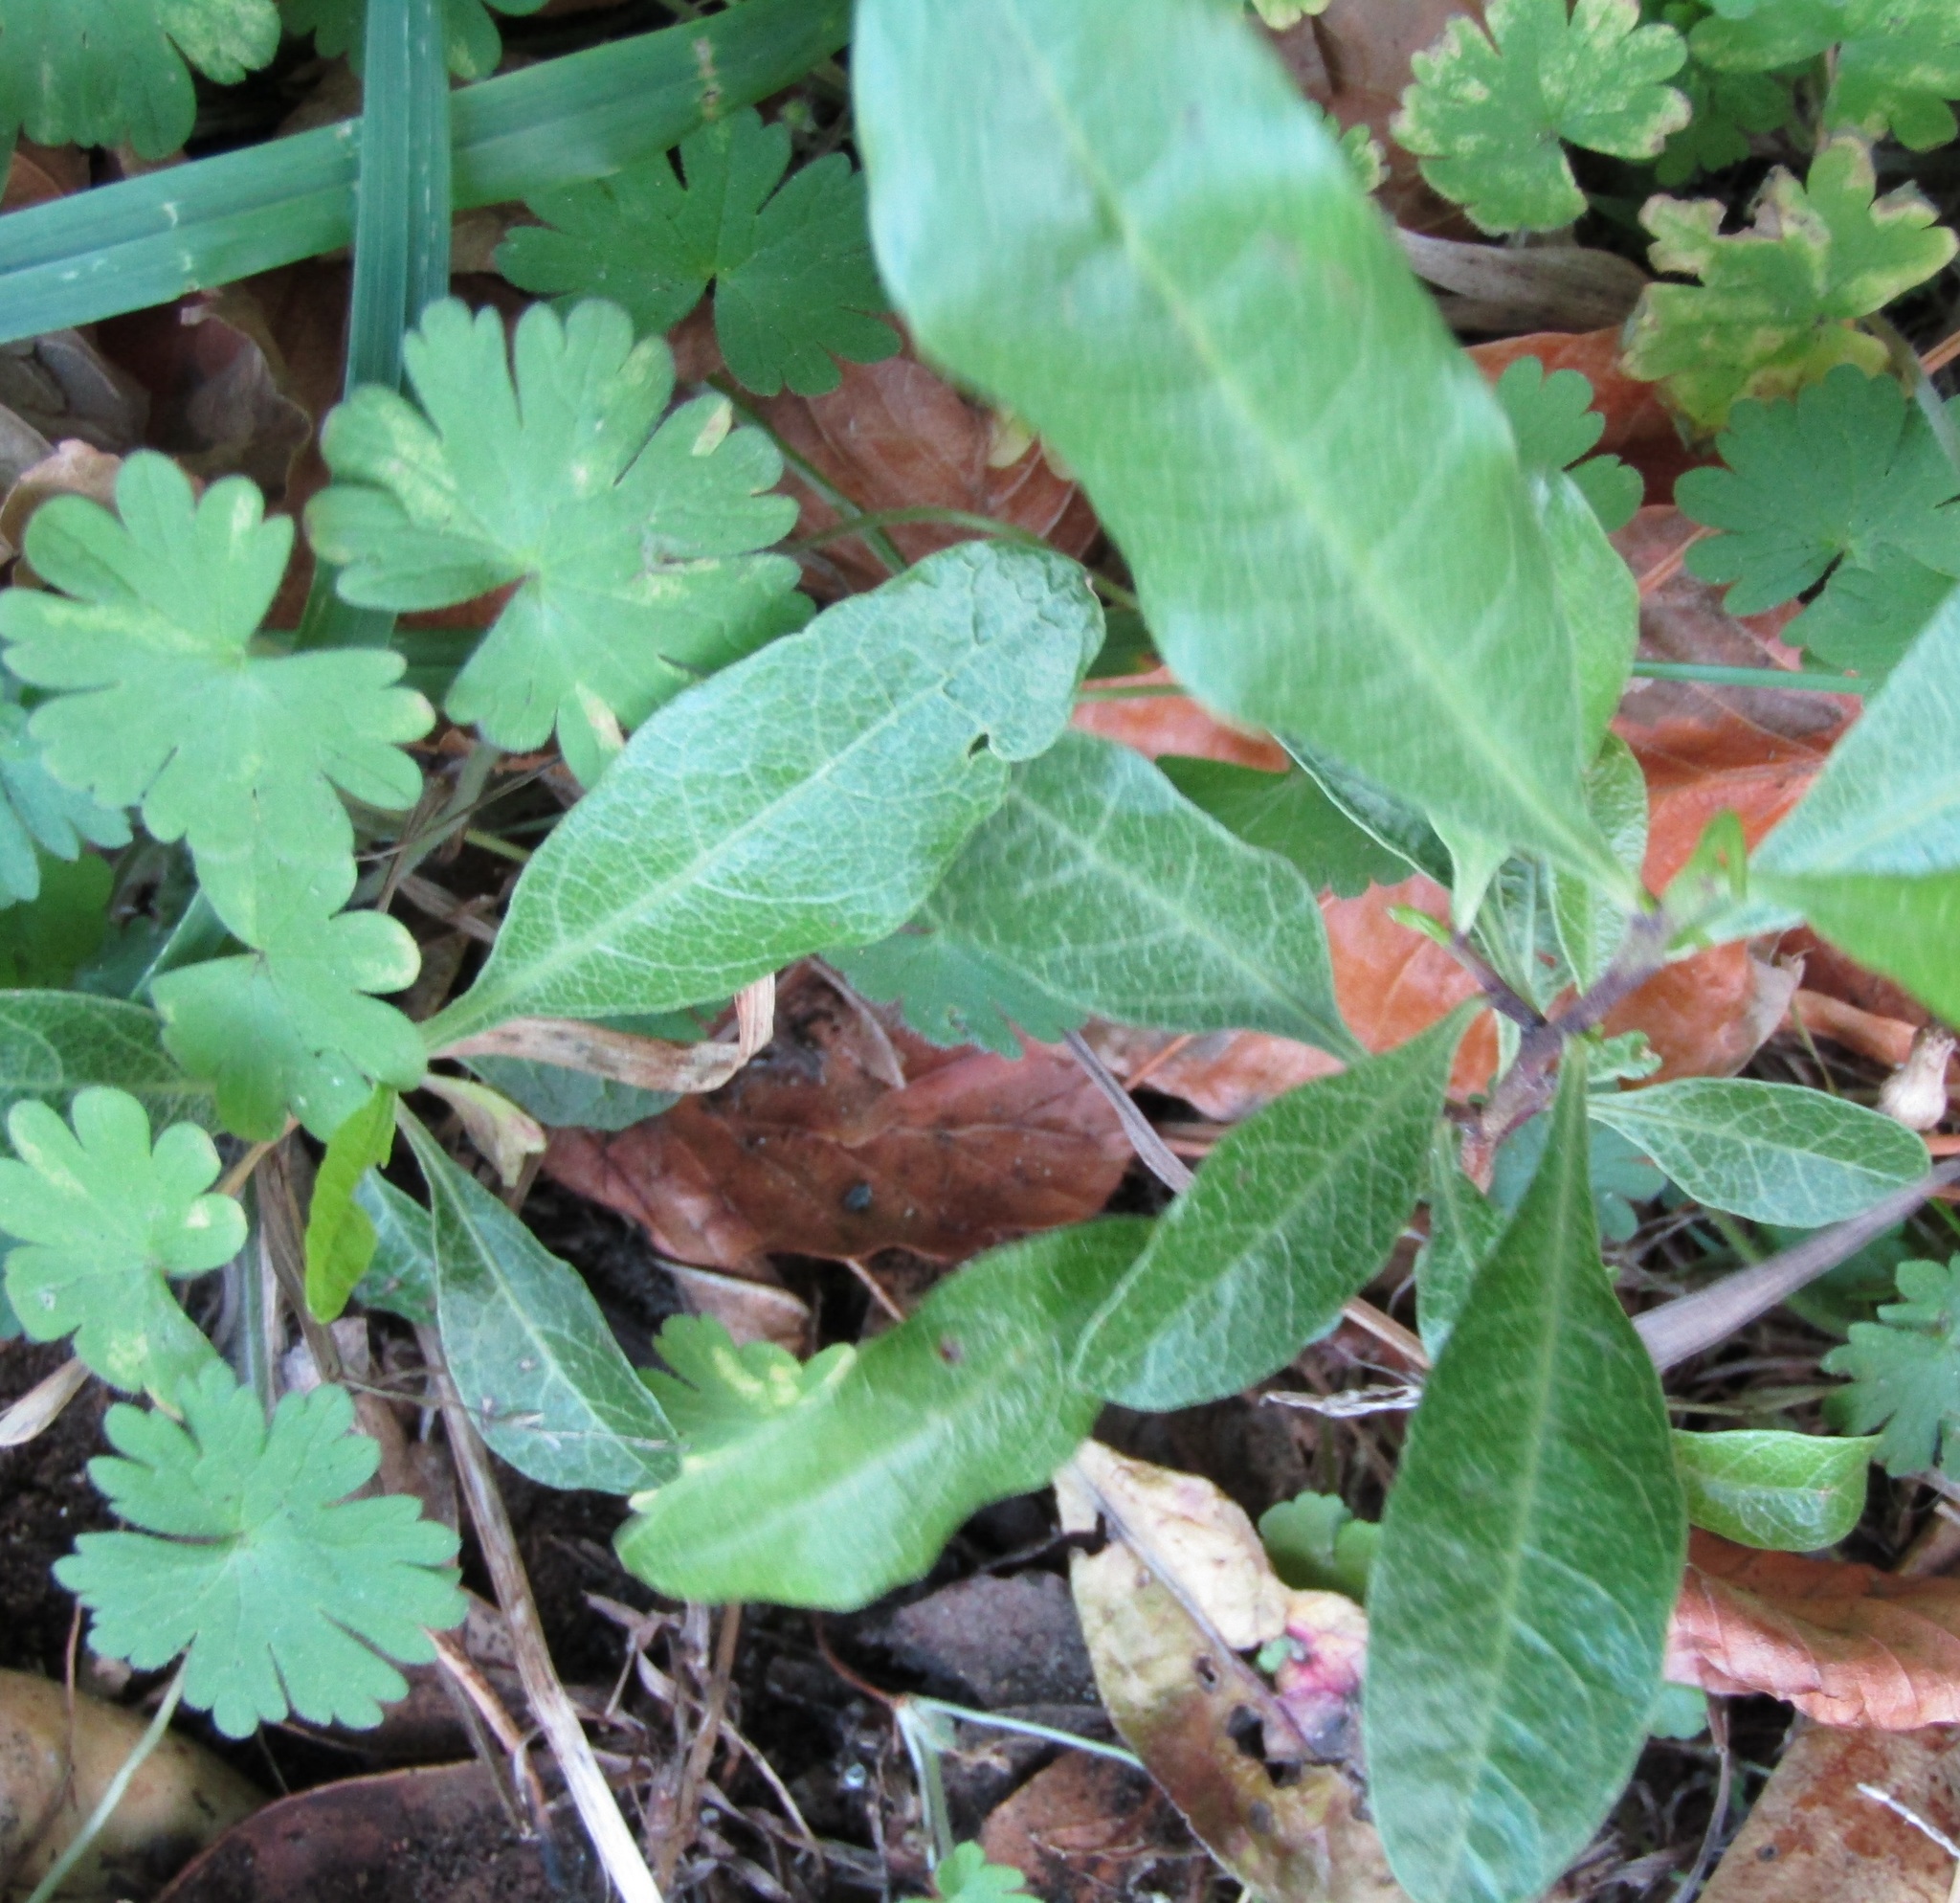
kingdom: Plantae
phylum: Tracheophyta
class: Magnoliopsida
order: Sapindales
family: Sapindaceae
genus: Dodonaea
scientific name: Dodonaea viscosa
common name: Hopbush
